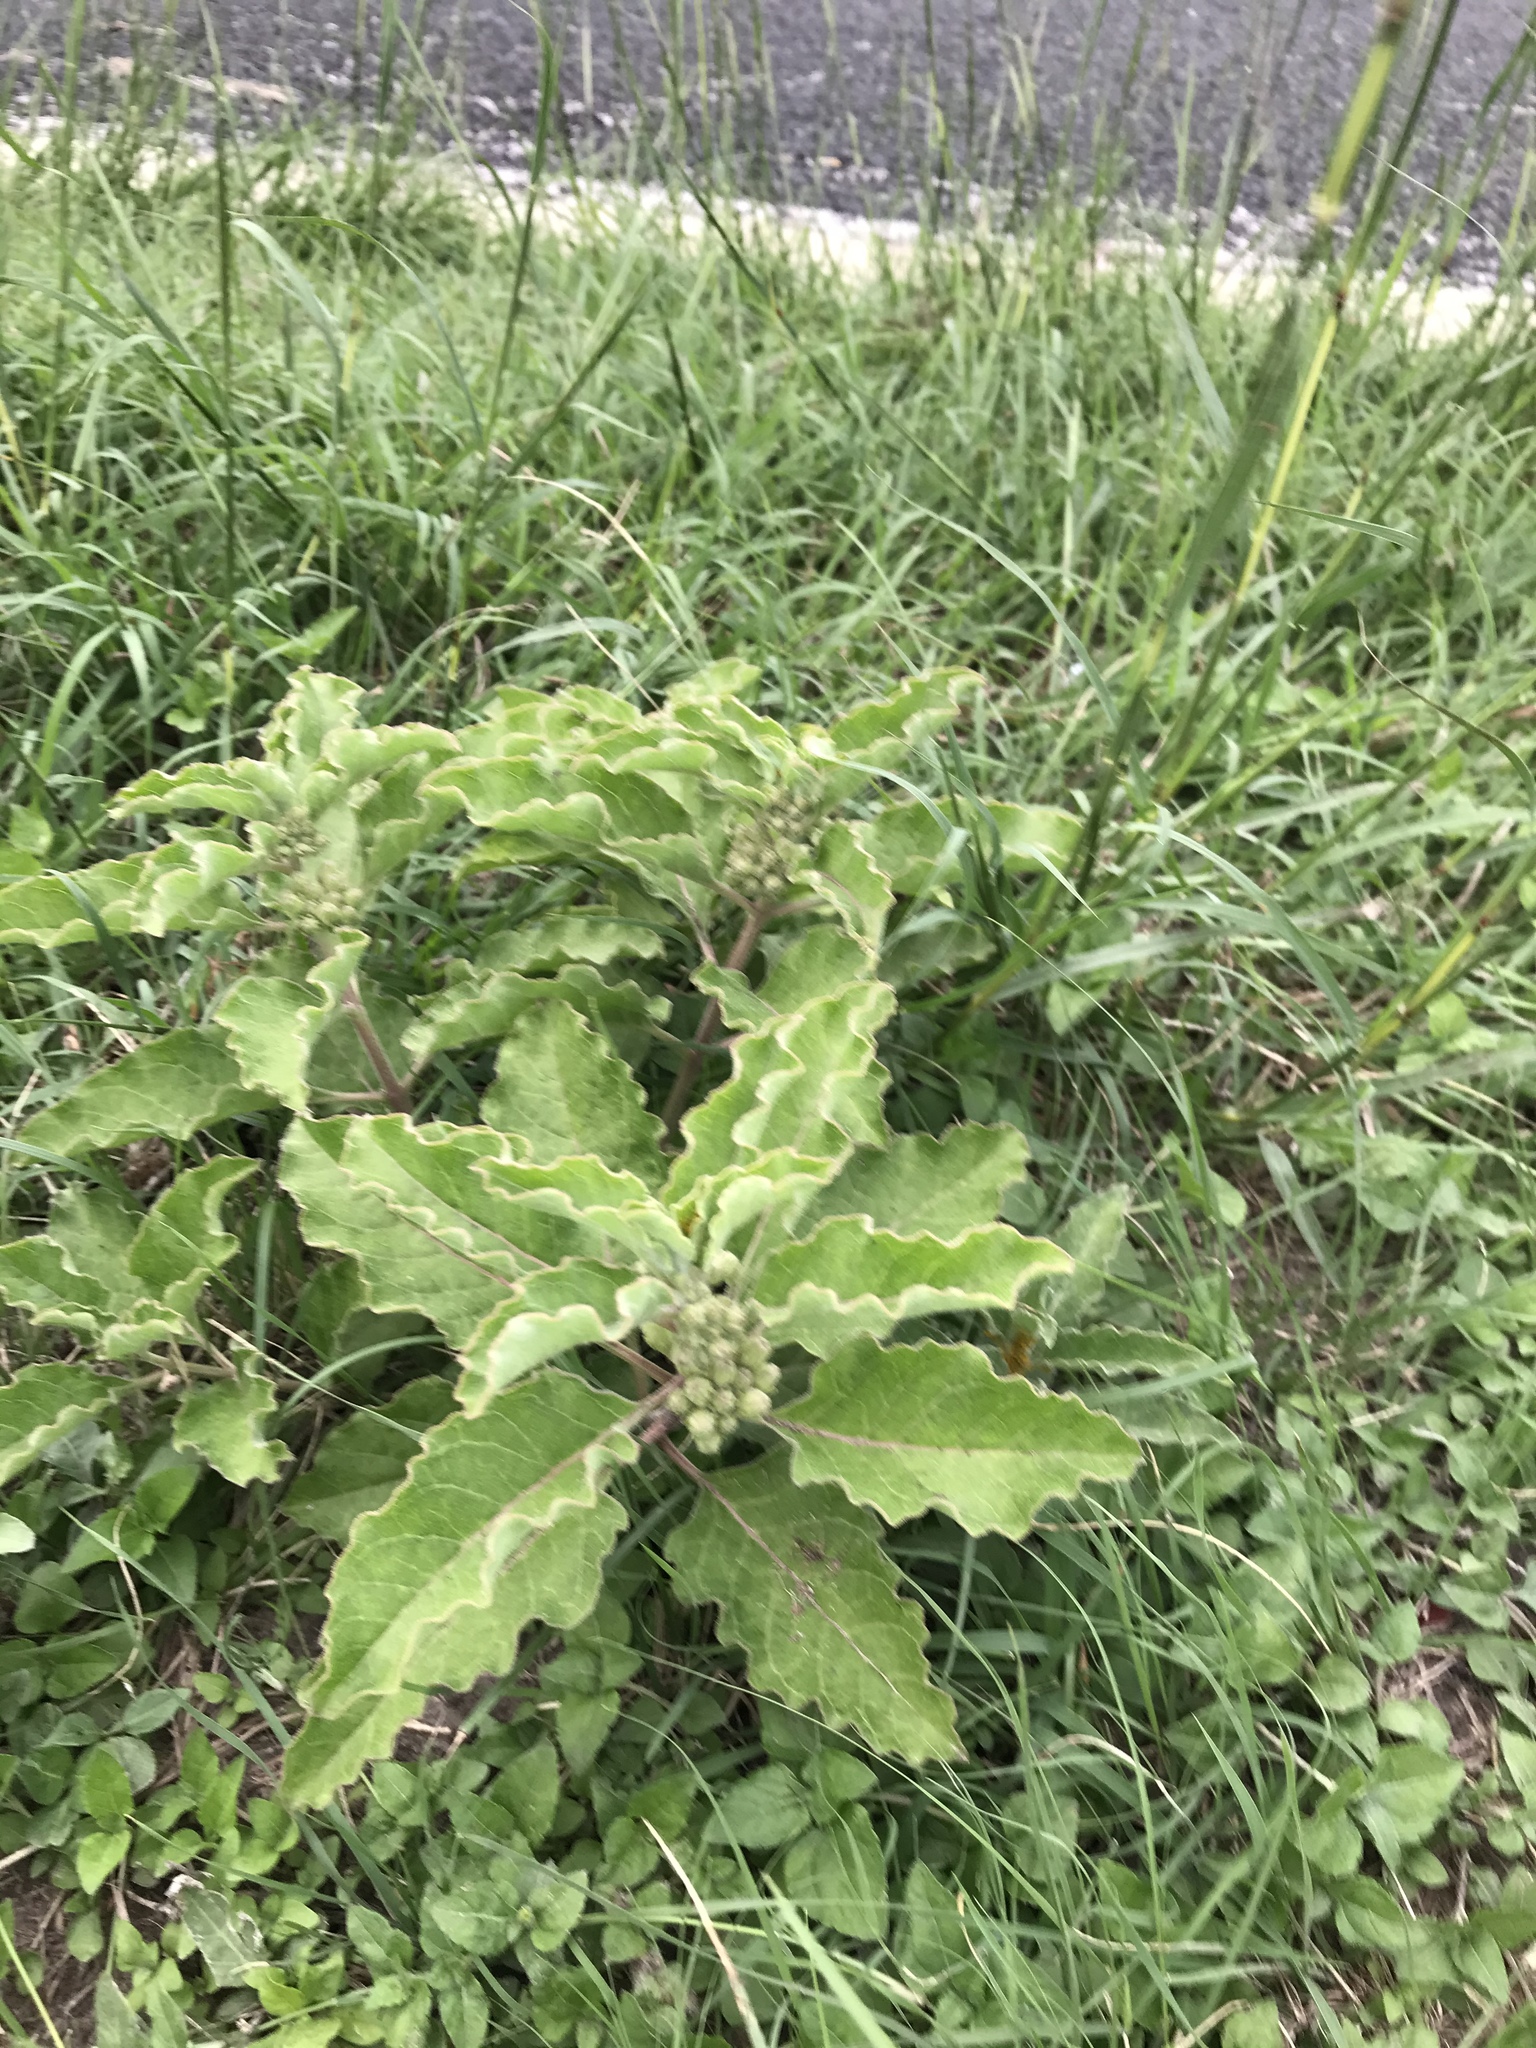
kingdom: Plantae
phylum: Tracheophyta
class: Magnoliopsida
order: Gentianales
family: Apocynaceae
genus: Asclepias
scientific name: Asclepias oenotheroides
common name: Zizotes milkweed
